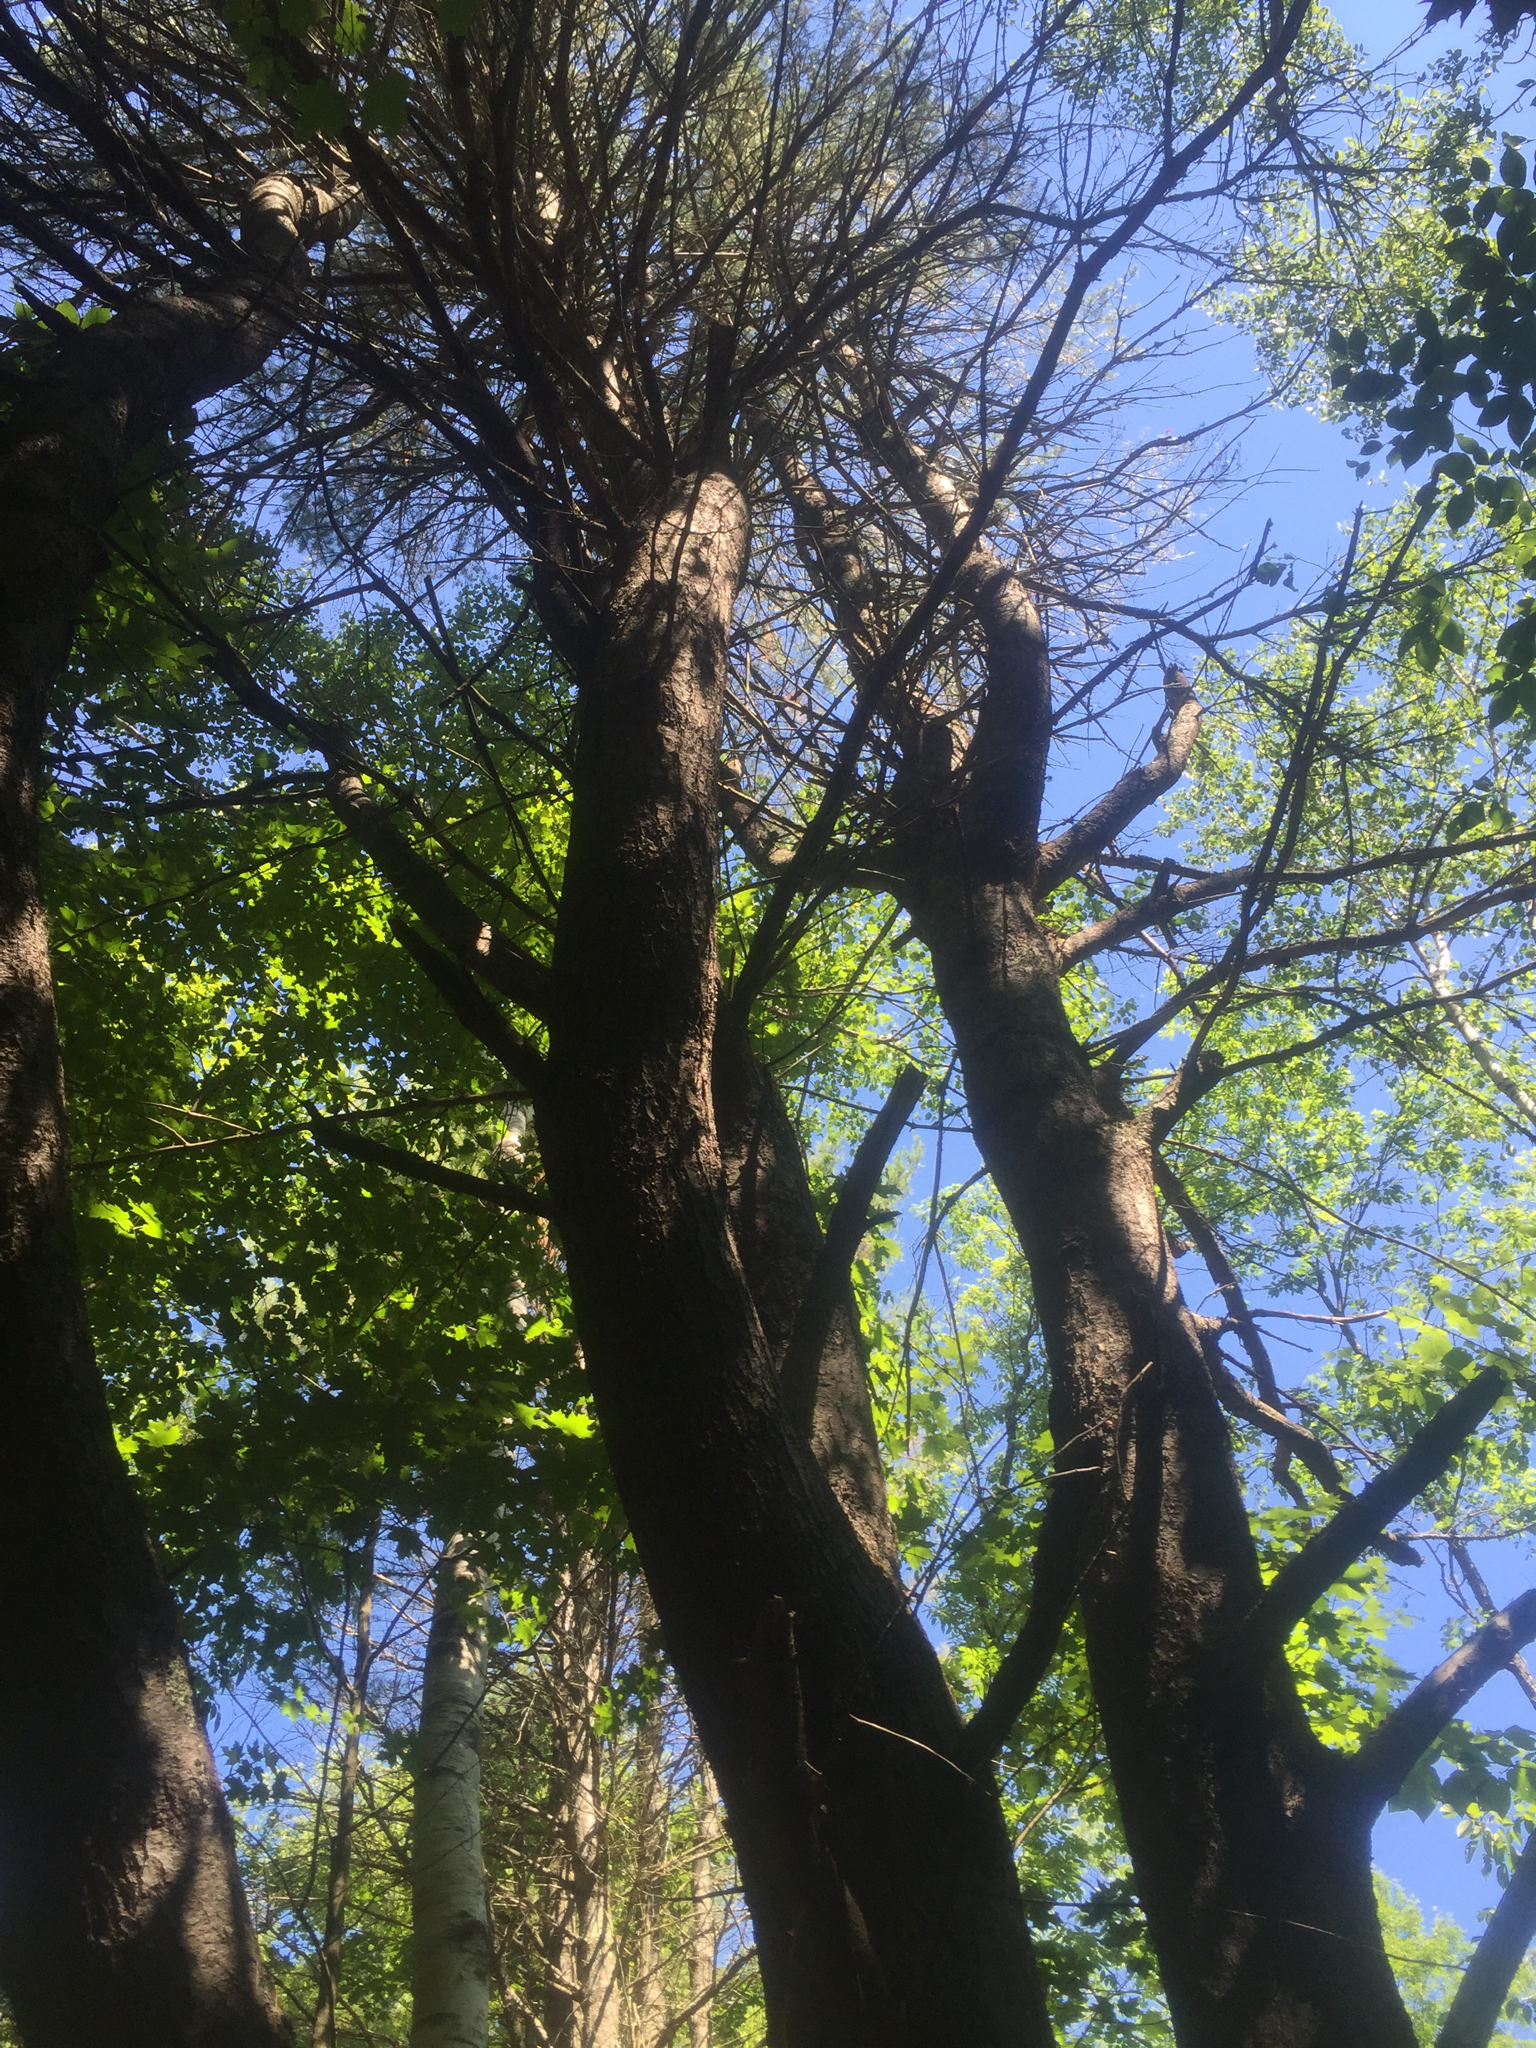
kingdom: Plantae
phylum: Tracheophyta
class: Pinopsida
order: Pinales
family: Pinaceae
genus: Pinus
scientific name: Pinus strobus
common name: Weymouth pine
